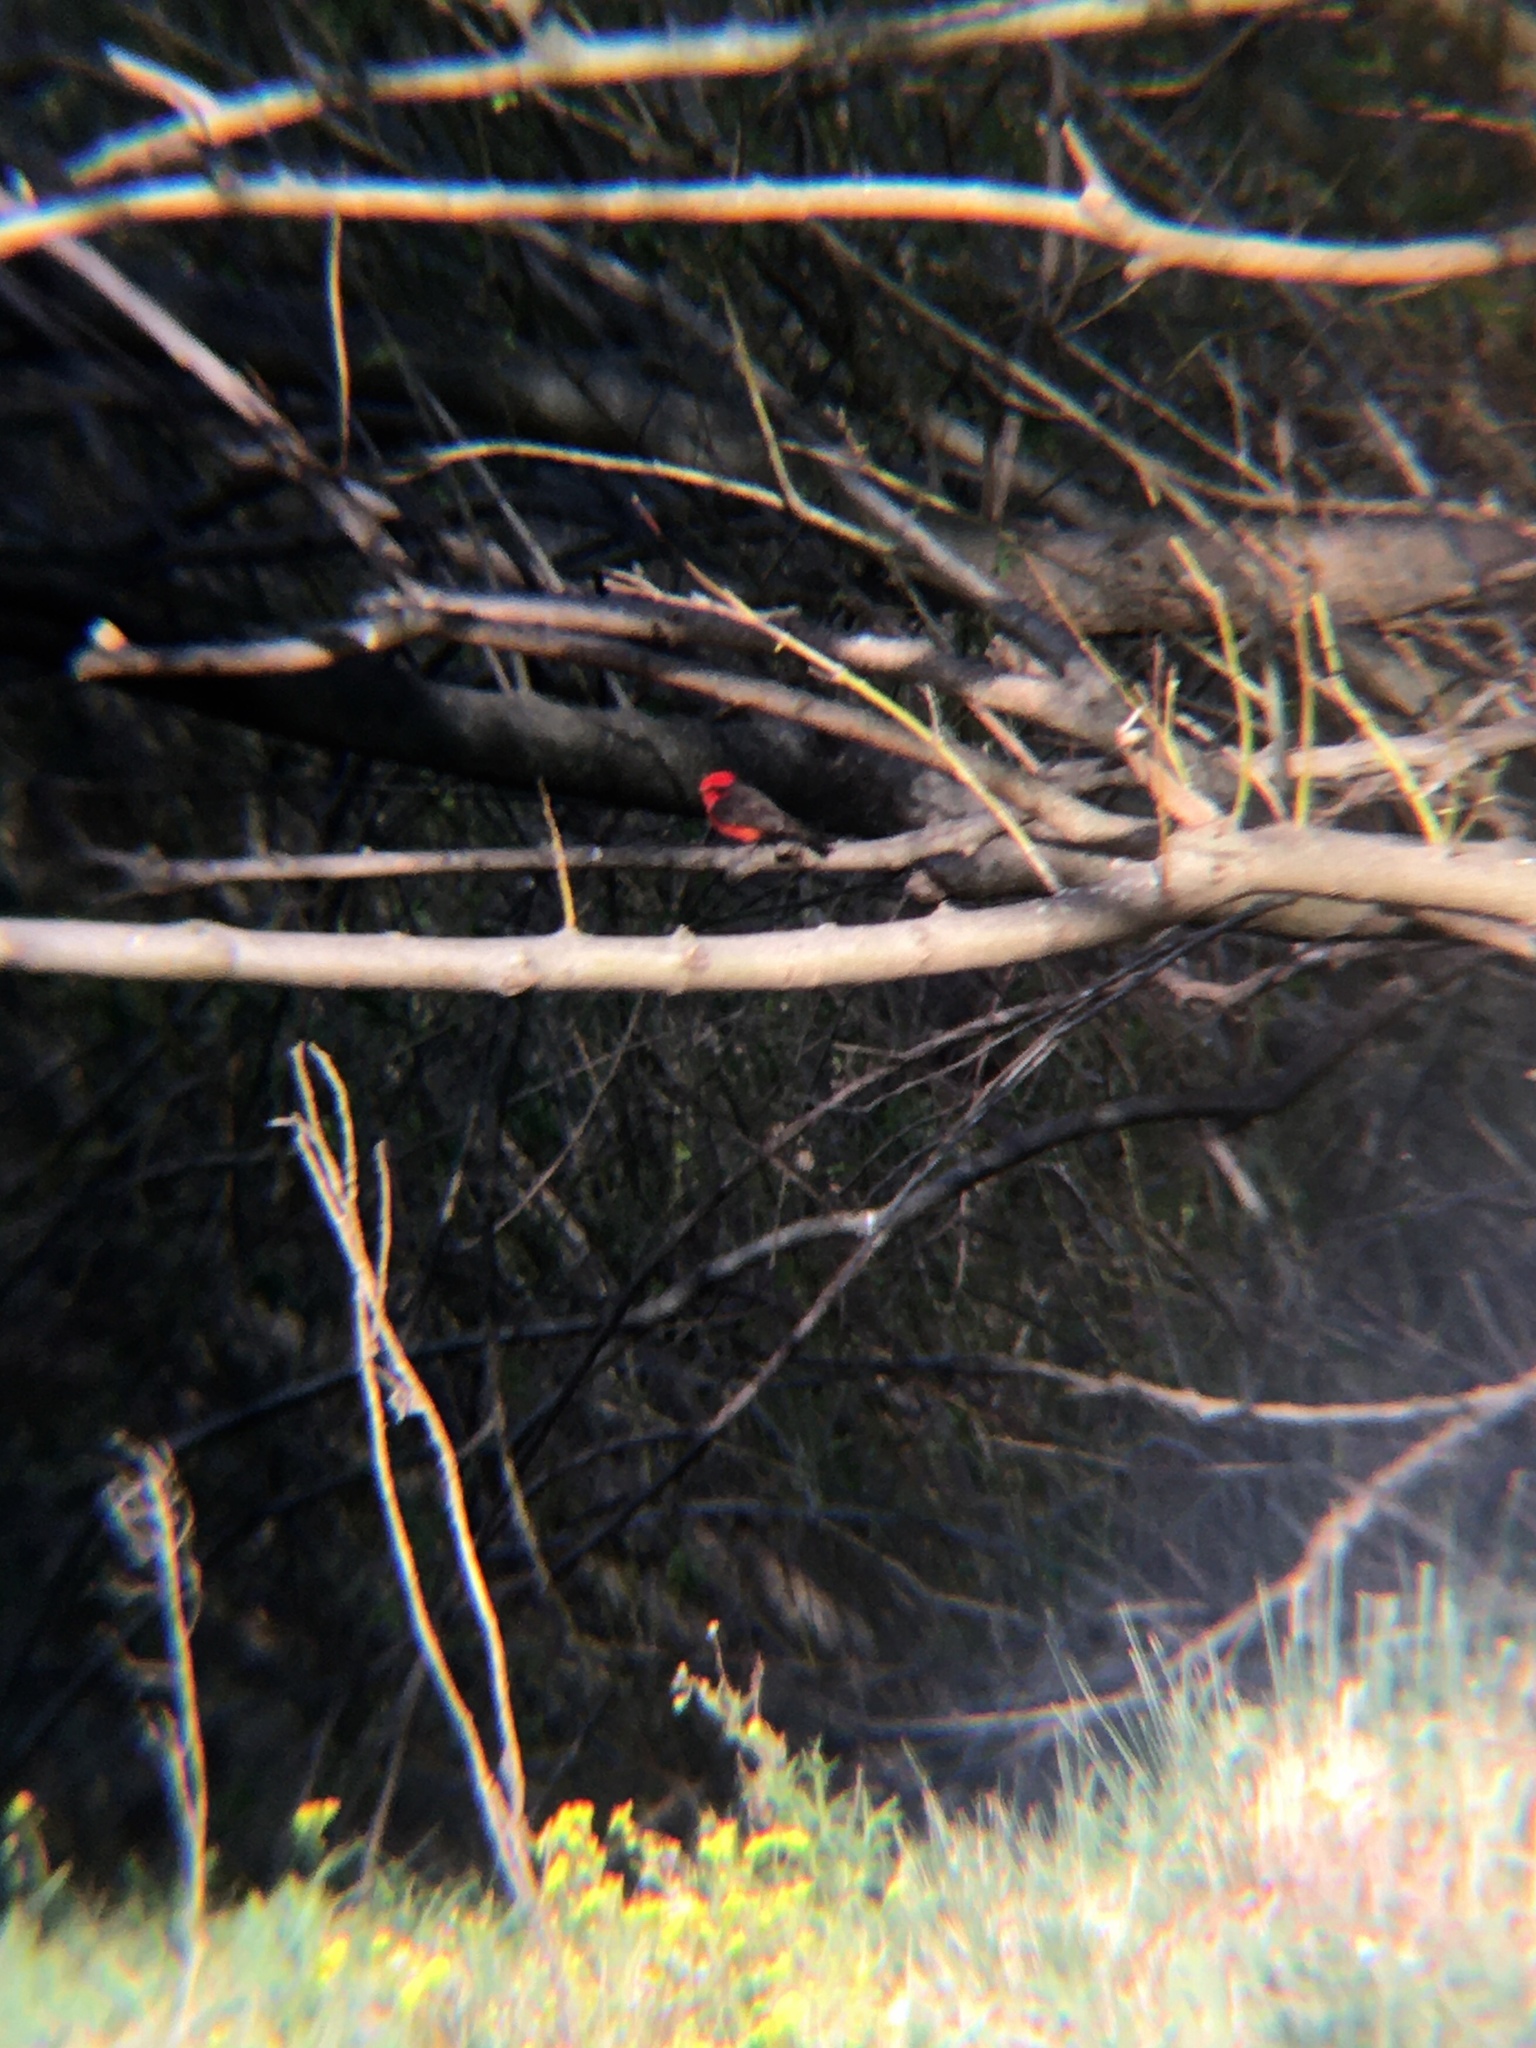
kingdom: Animalia
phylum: Chordata
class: Aves
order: Passeriformes
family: Tyrannidae
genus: Pyrocephalus
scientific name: Pyrocephalus rubinus
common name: Vermilion flycatcher
